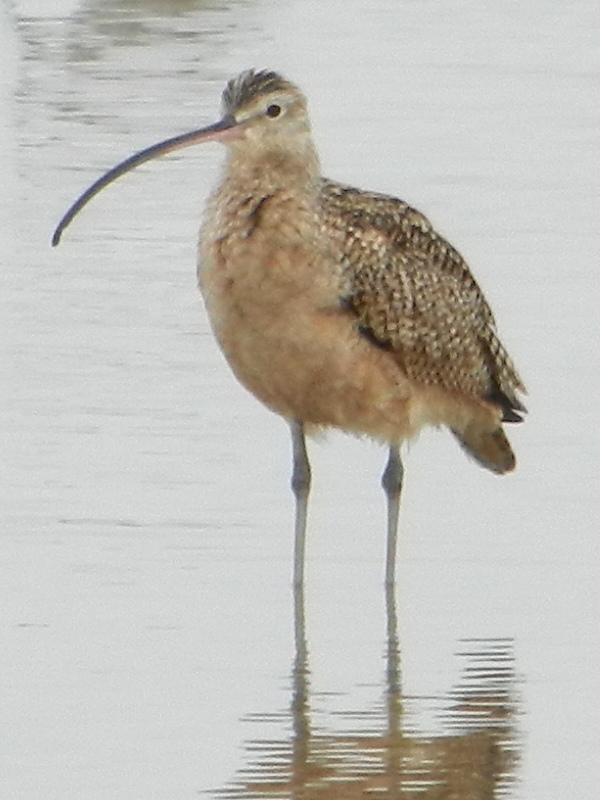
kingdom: Animalia
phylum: Chordata
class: Aves
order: Charadriiformes
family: Scolopacidae
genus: Numenius
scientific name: Numenius americanus
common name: Long-billed curlew
